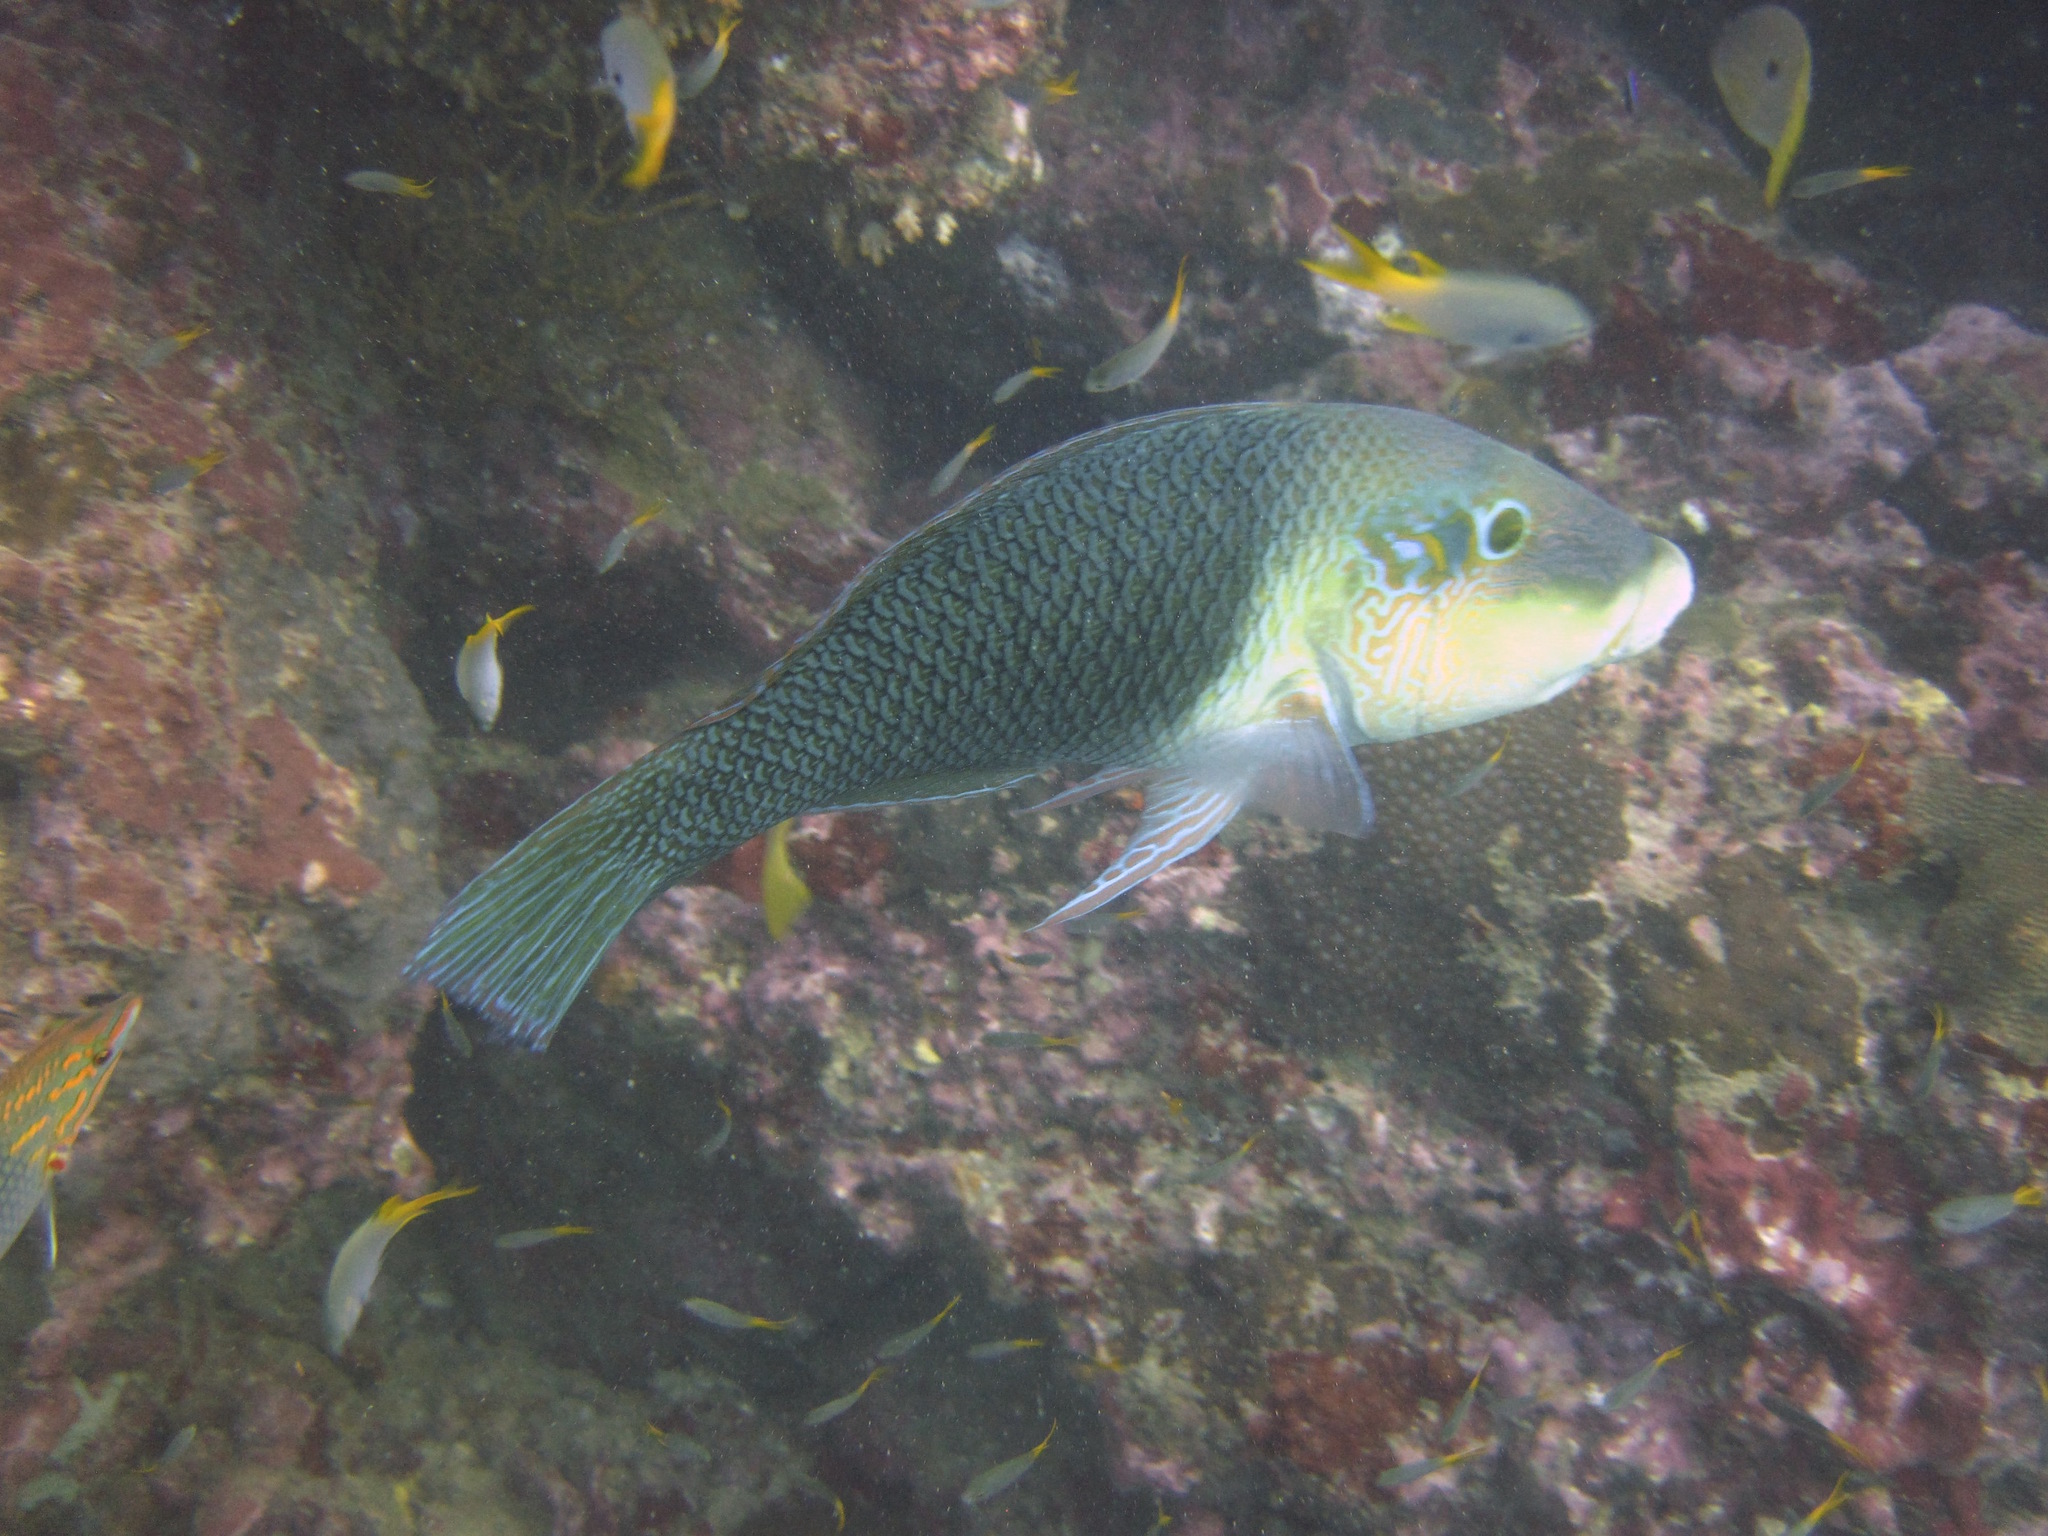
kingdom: Animalia
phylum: Chordata
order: Perciformes
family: Labridae
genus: Hemigymnus
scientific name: Hemigymnus melapterus
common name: Blackeye thicklip
